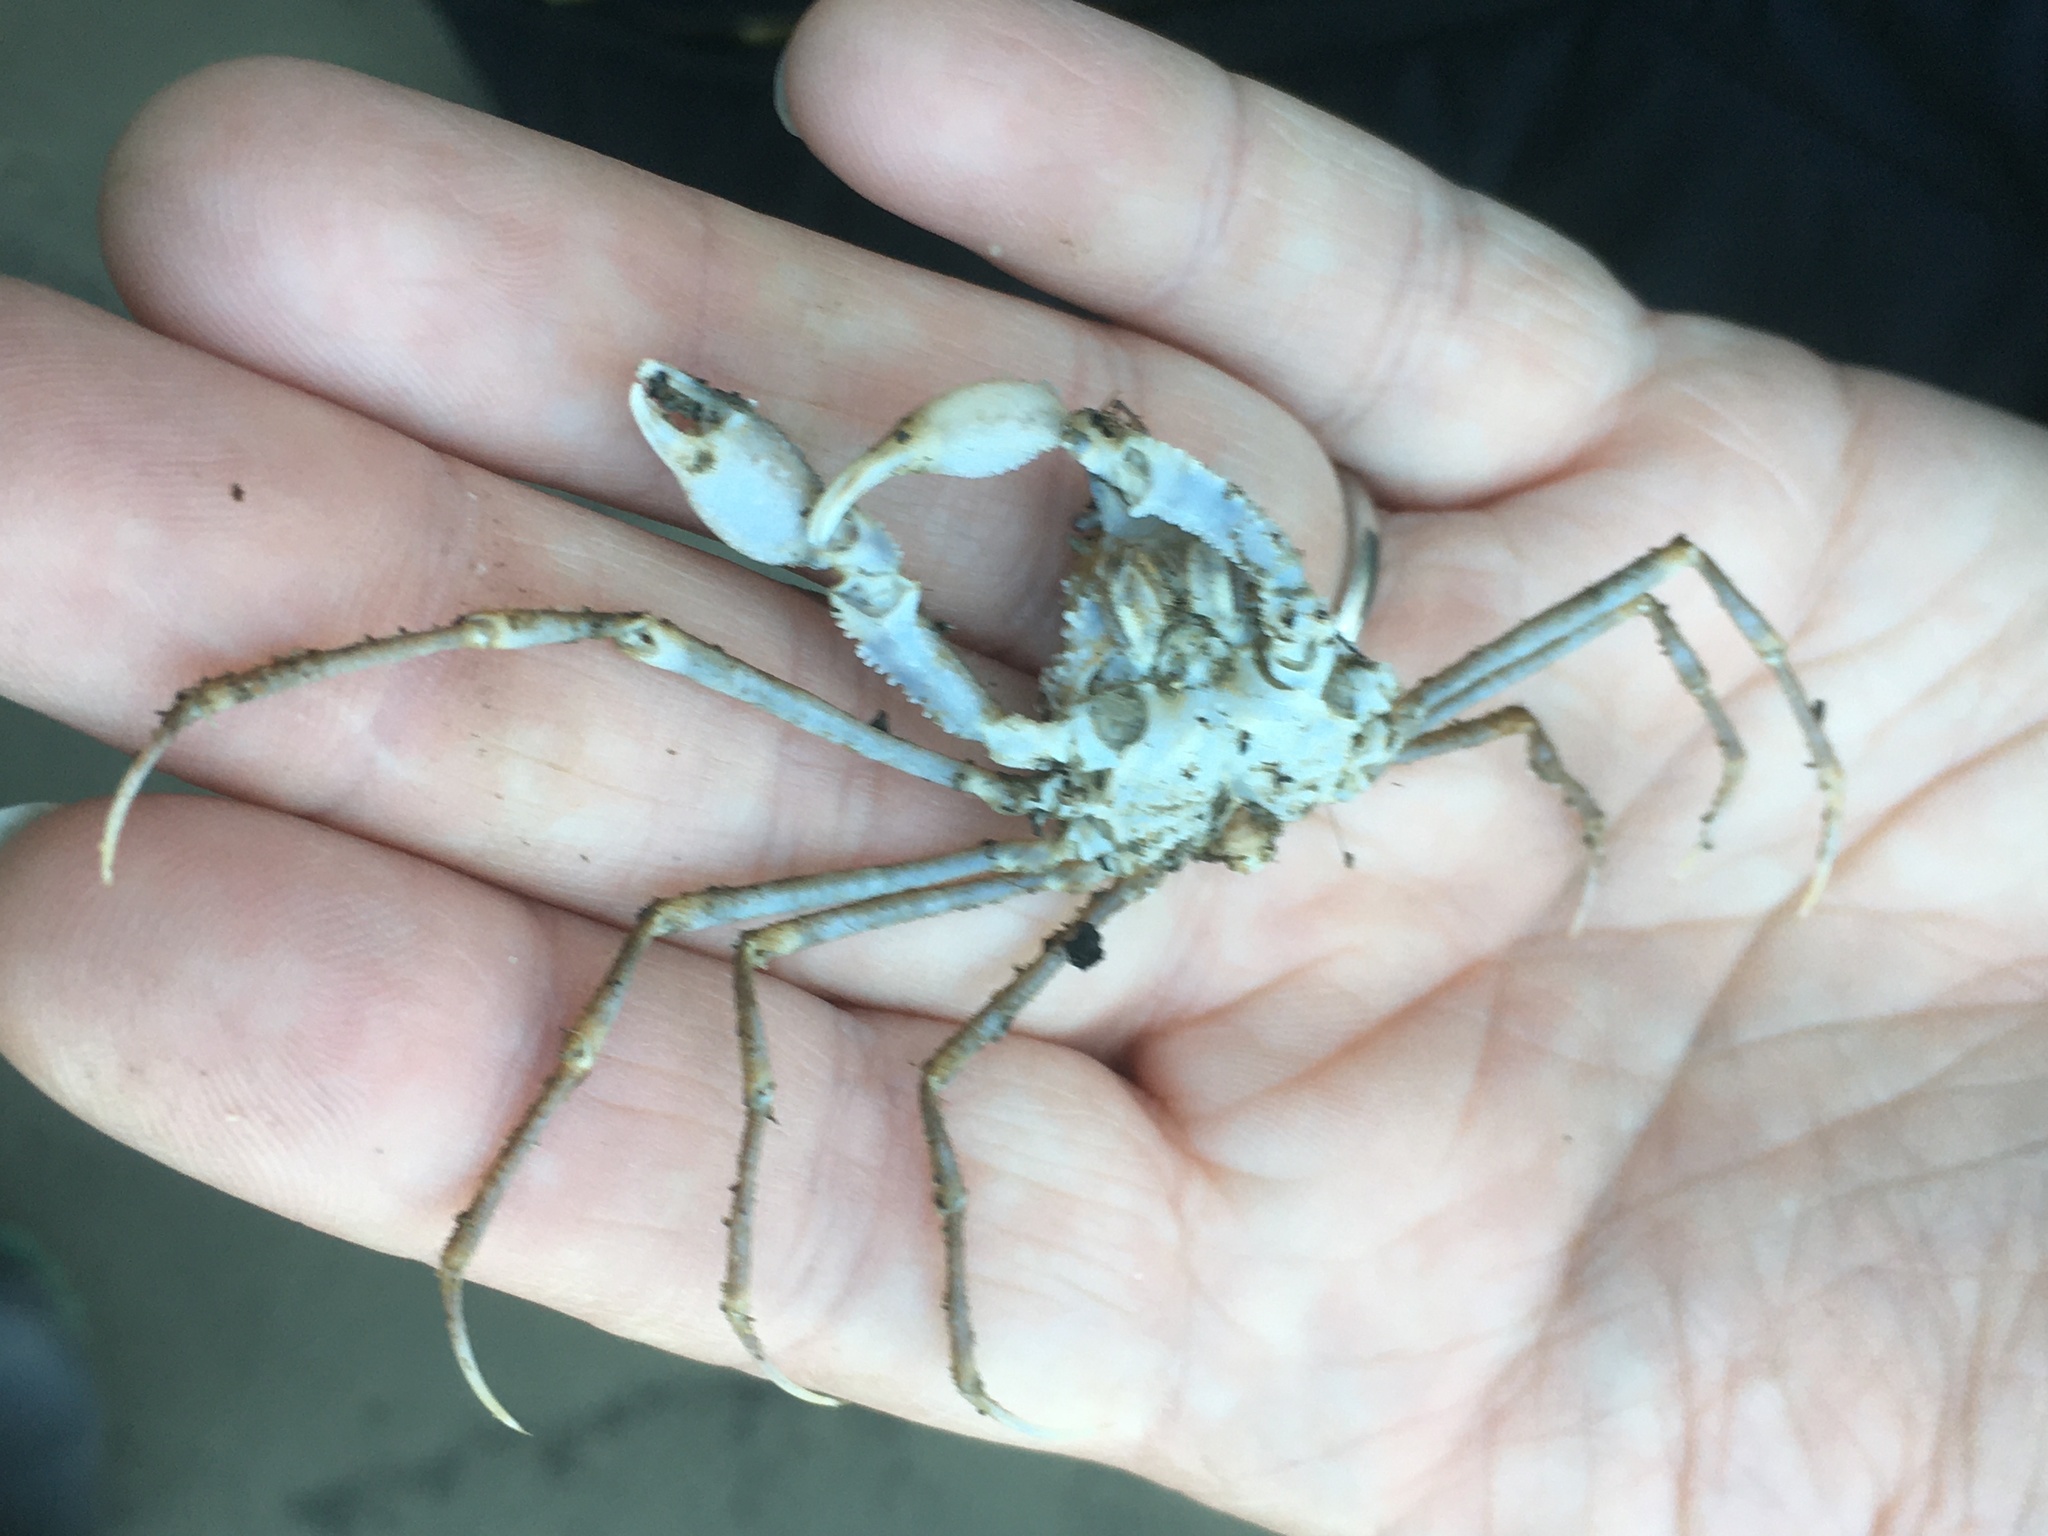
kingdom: Animalia
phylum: Arthropoda
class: Malacostraca
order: Decapoda
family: Inachoididae
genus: Pyromaia
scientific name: Pyromaia tuberculata
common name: Tuberculate pear crab
